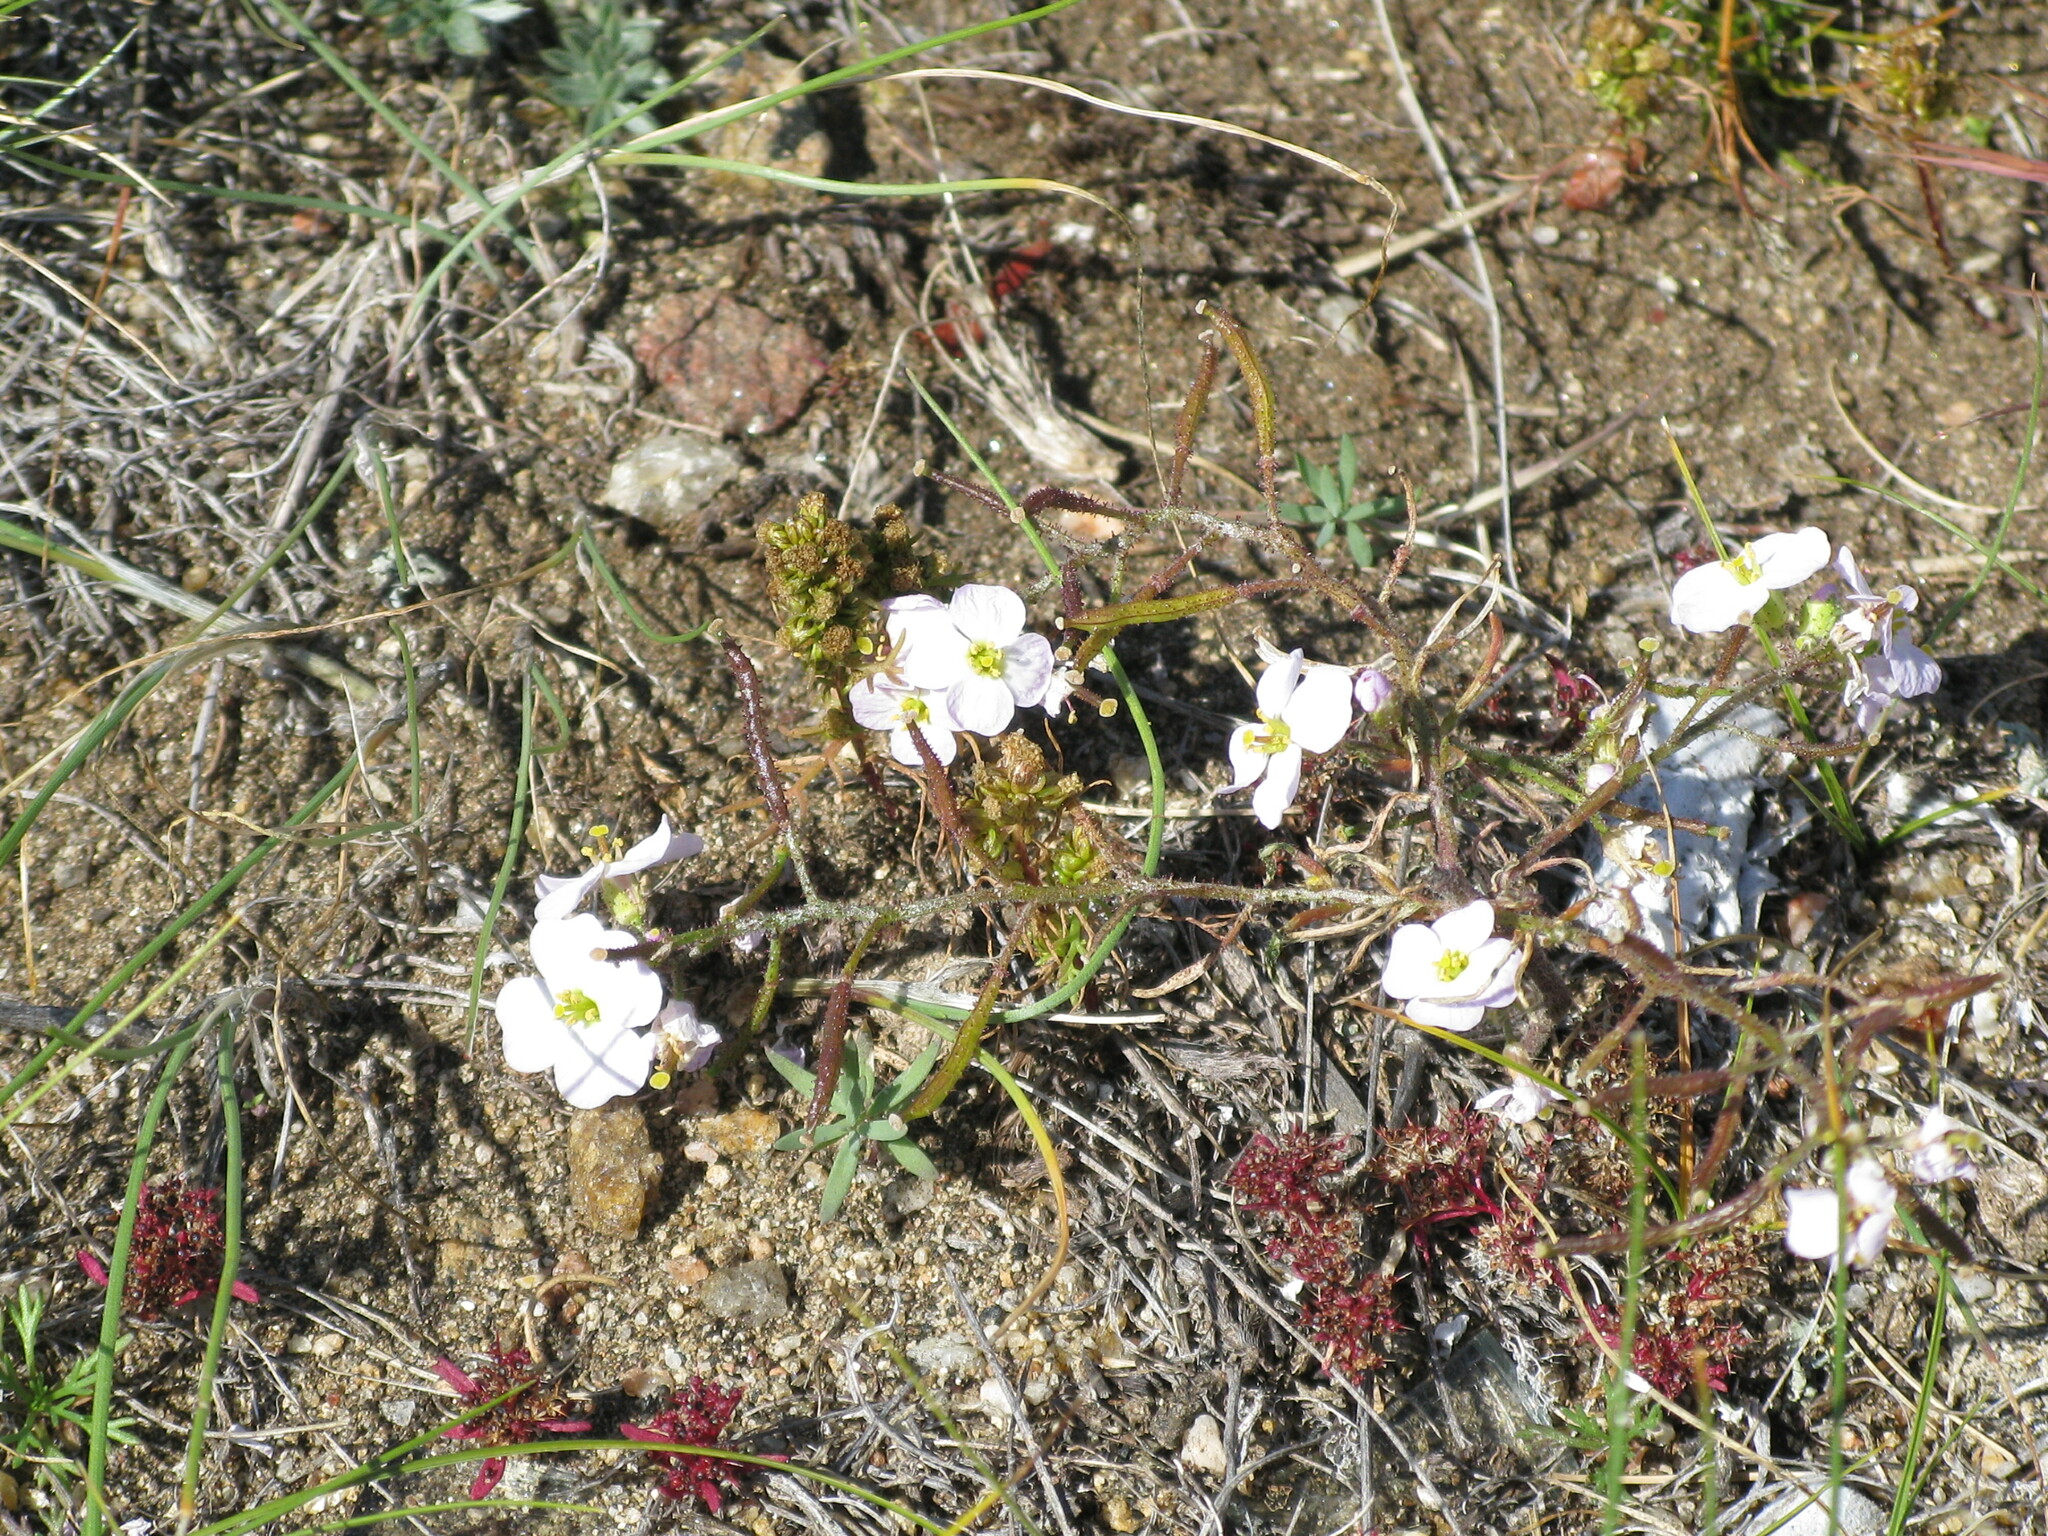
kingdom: Plantae
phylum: Tracheophyta
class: Magnoliopsida
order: Brassicales
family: Brassicaceae
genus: Dontostemon
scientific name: Dontostemon integrifolius
